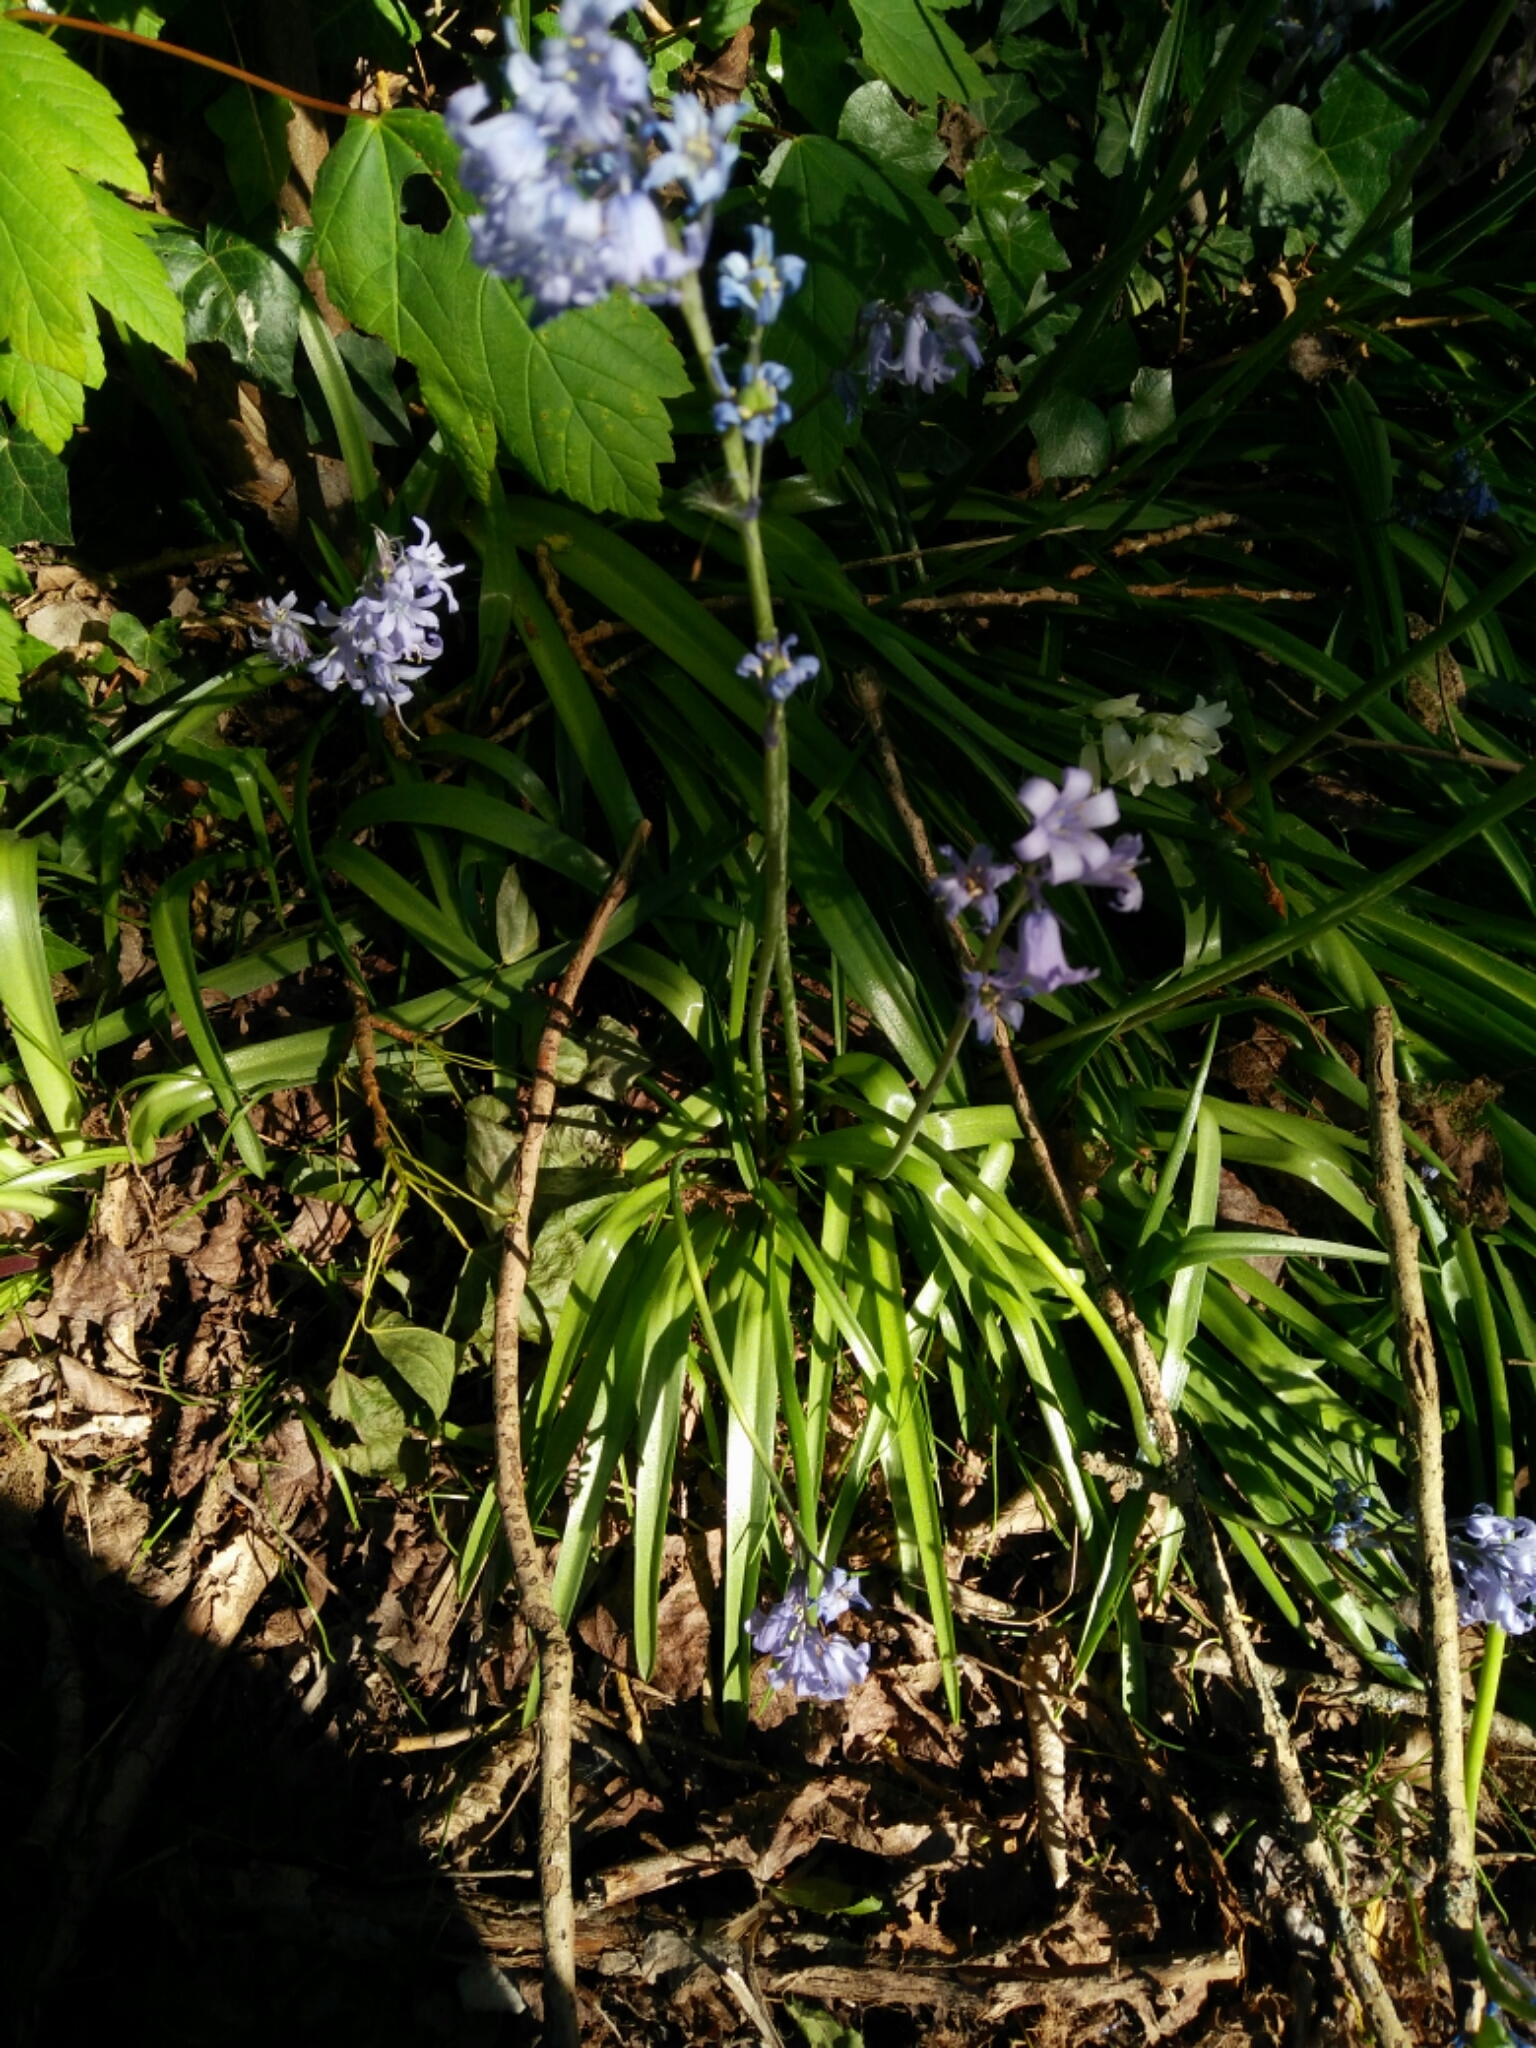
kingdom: Plantae
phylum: Tracheophyta
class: Liliopsida
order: Asparagales
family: Asparagaceae
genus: Hyacinthoides
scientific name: Hyacinthoides massartiana
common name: Hyacinthoides
